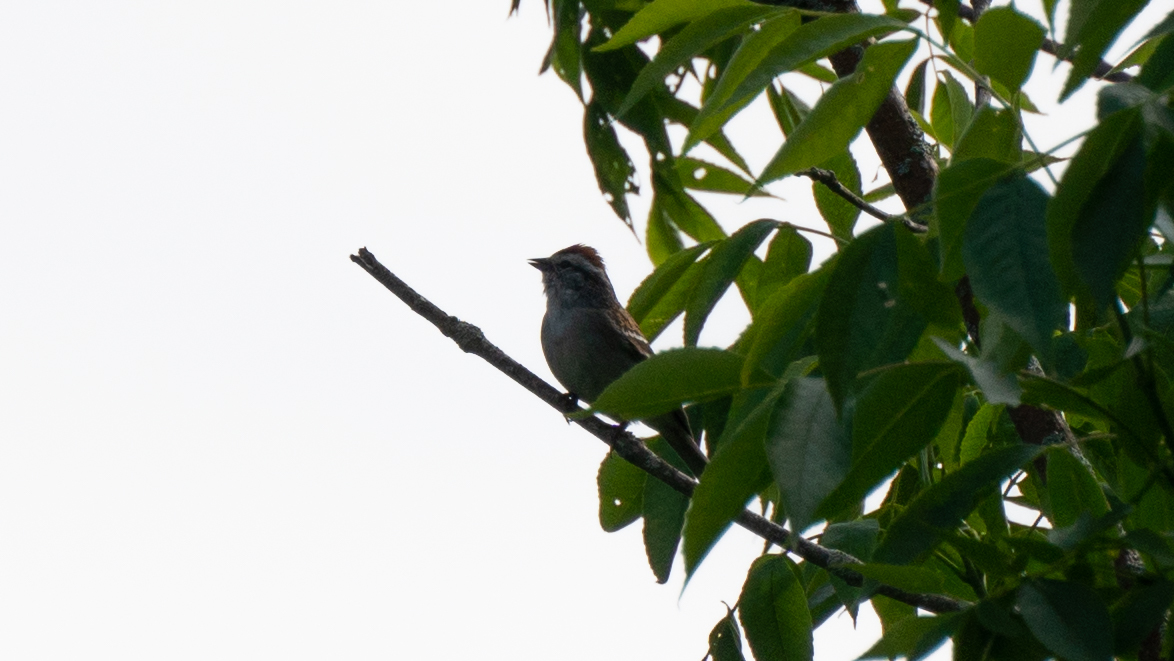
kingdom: Animalia
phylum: Chordata
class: Aves
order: Passeriformes
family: Passerellidae
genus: Spizella
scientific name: Spizella passerina
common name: Chipping sparrow
